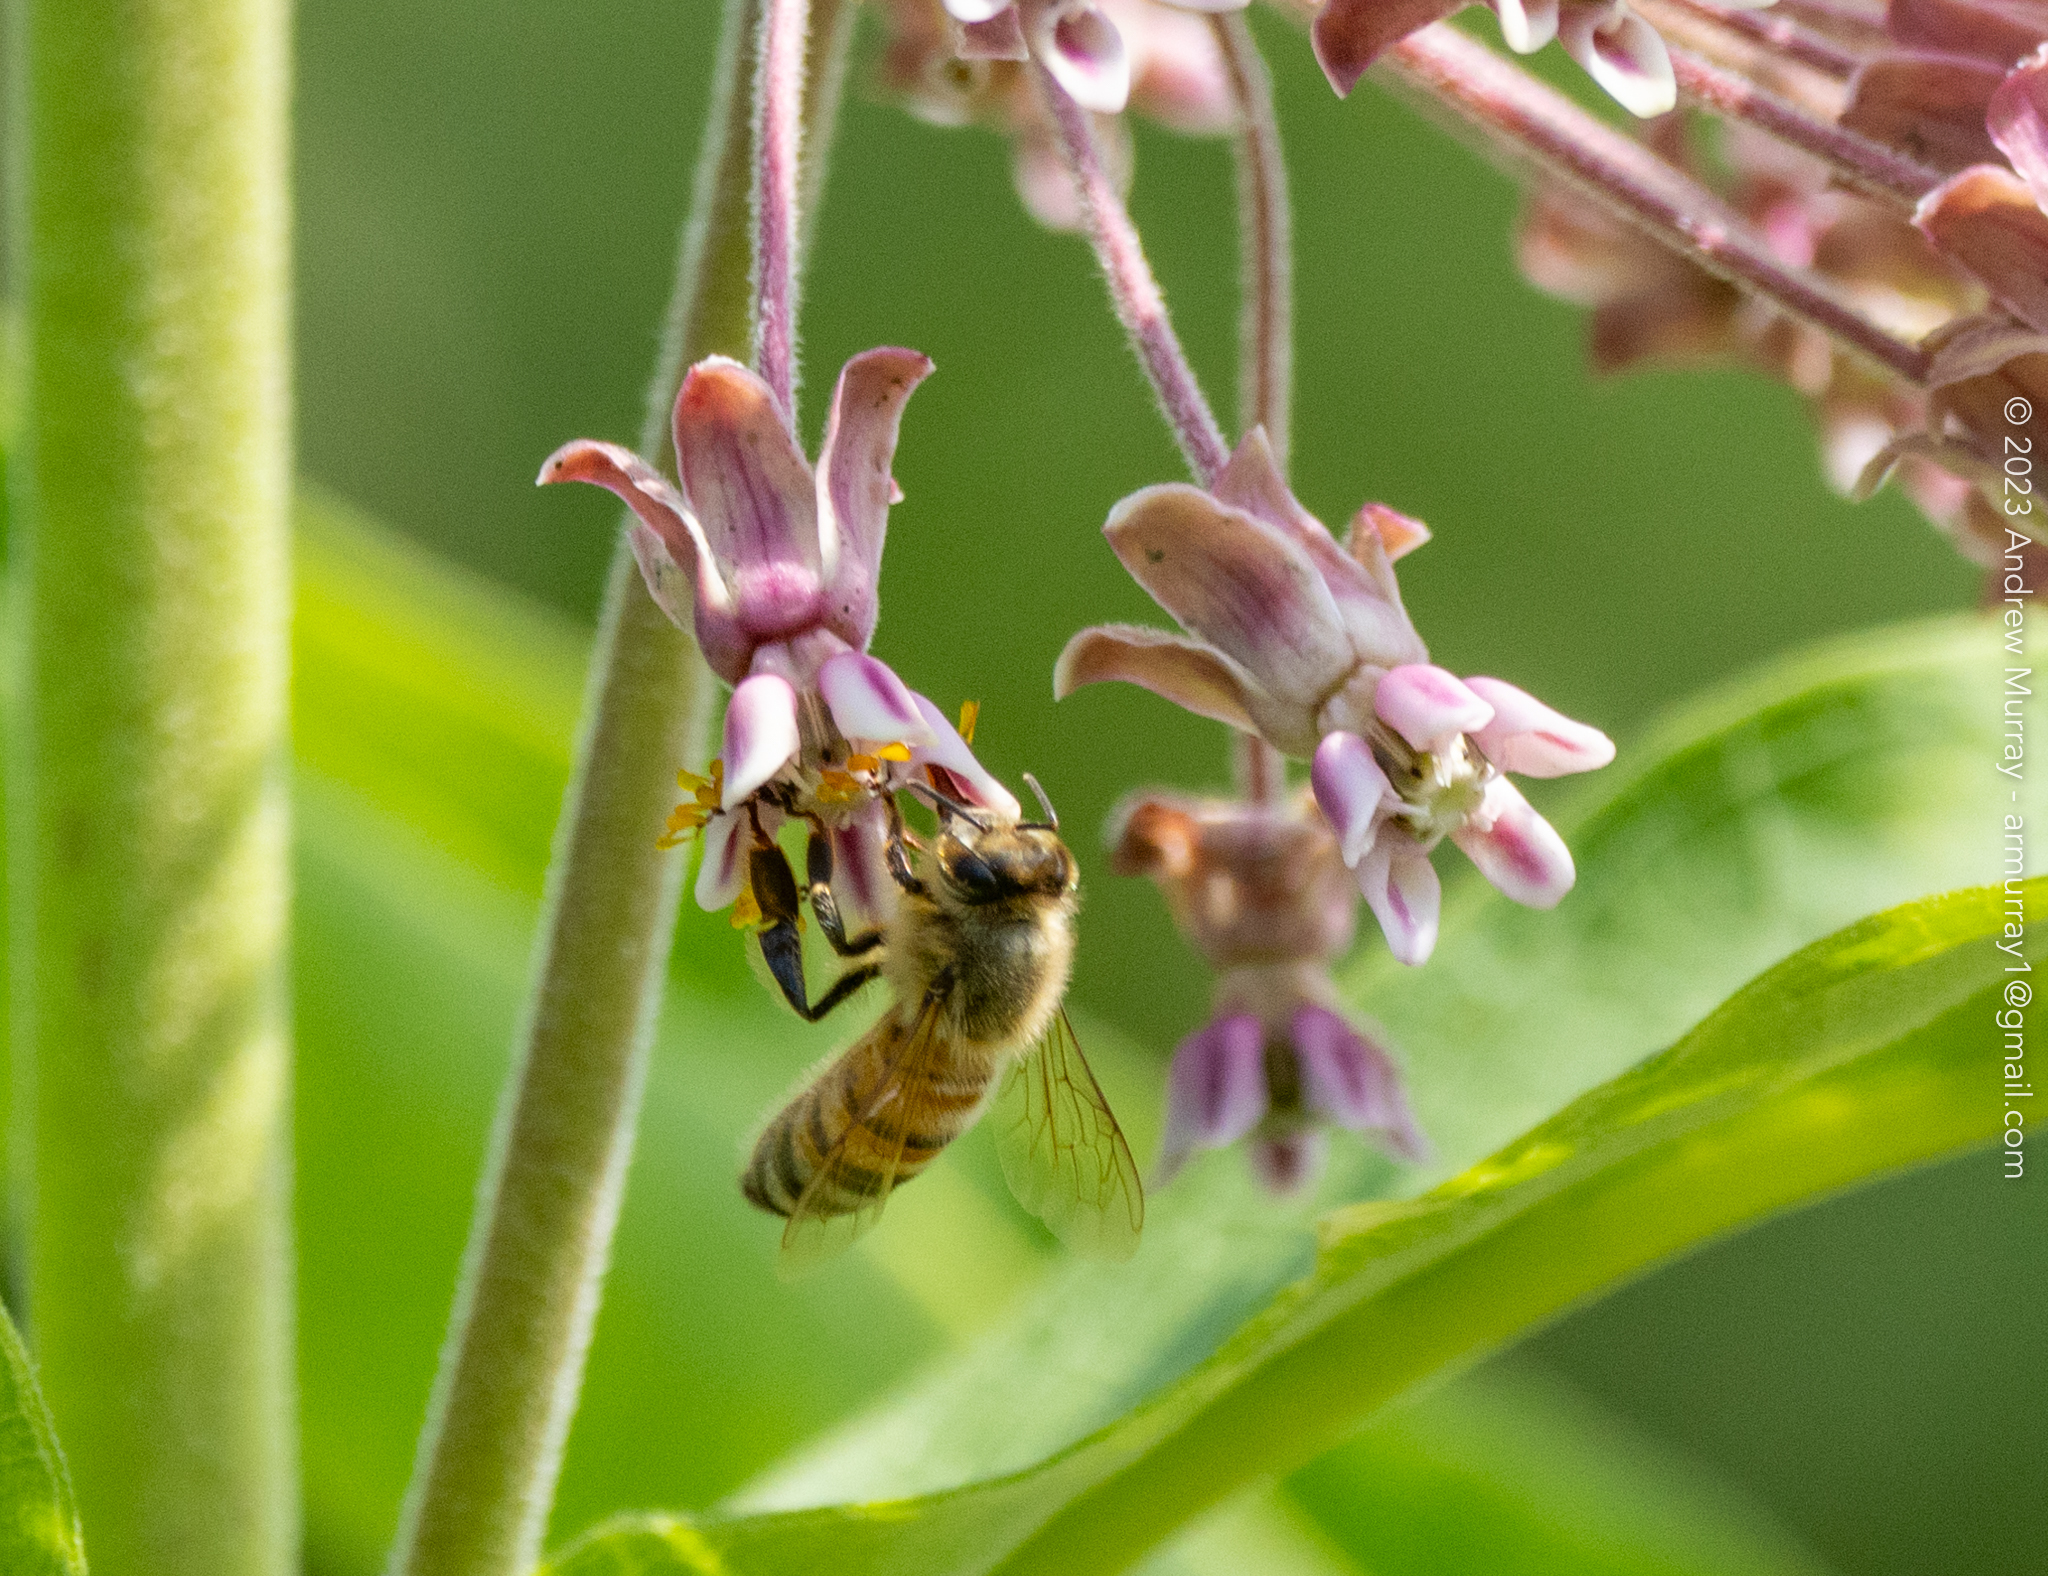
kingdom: Animalia
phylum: Arthropoda
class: Insecta
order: Hymenoptera
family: Apidae
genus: Apis
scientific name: Apis mellifera
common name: Honey bee
